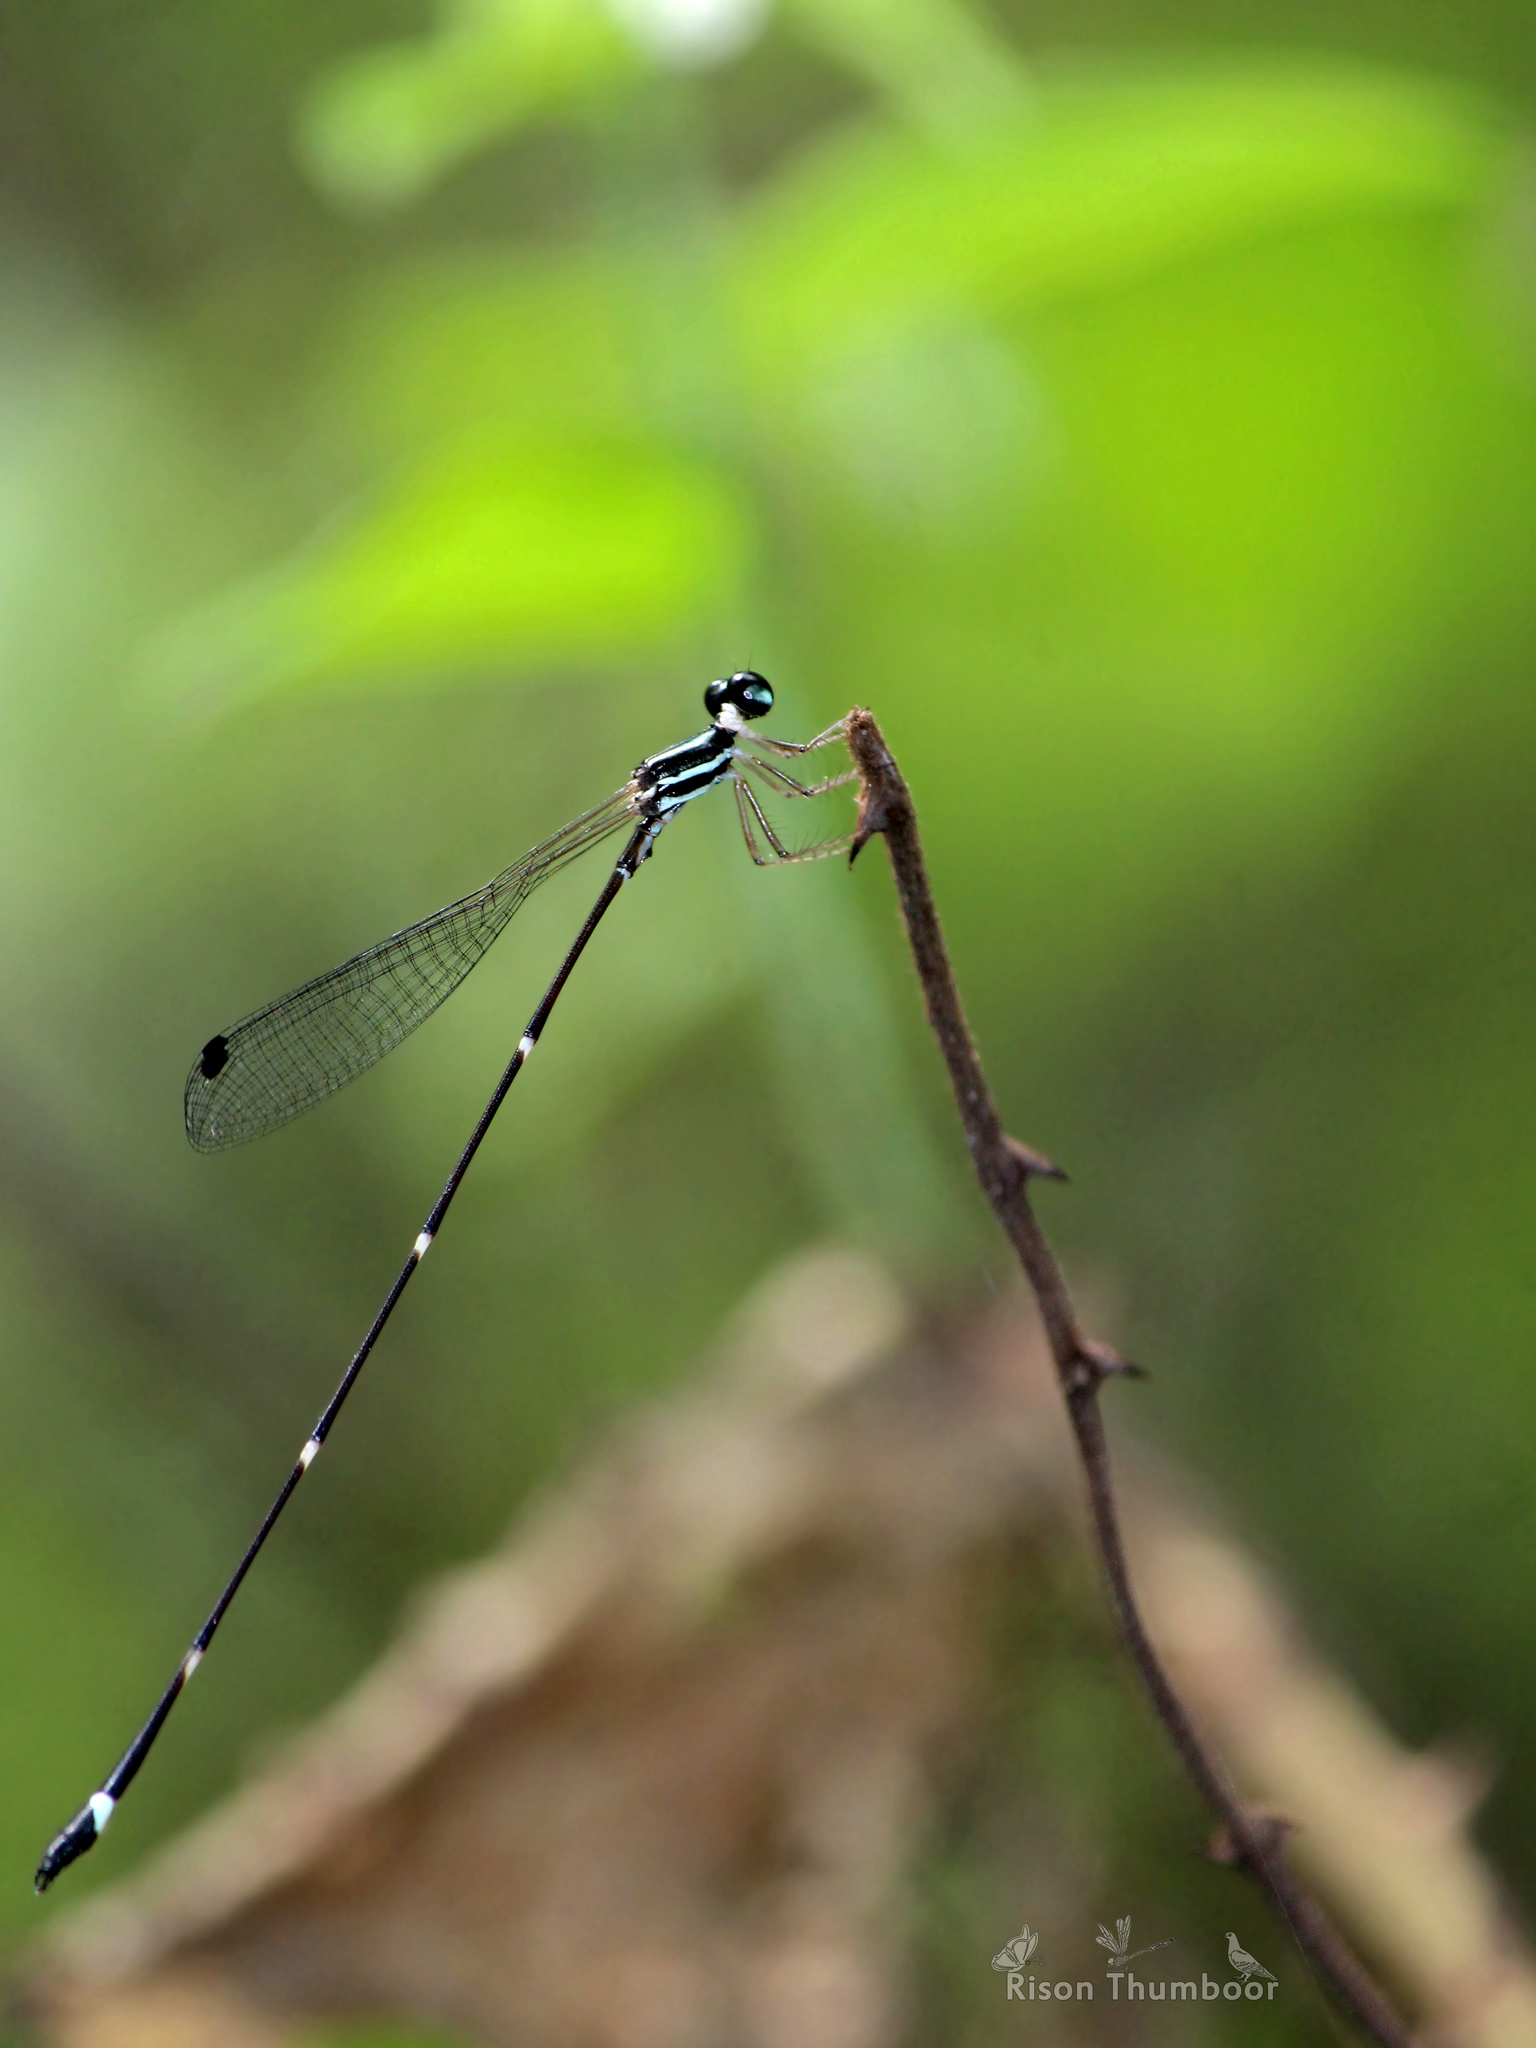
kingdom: Animalia
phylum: Arthropoda
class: Insecta
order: Odonata
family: Platystictidae
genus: Protosticta
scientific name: Protosticta gravelyi
